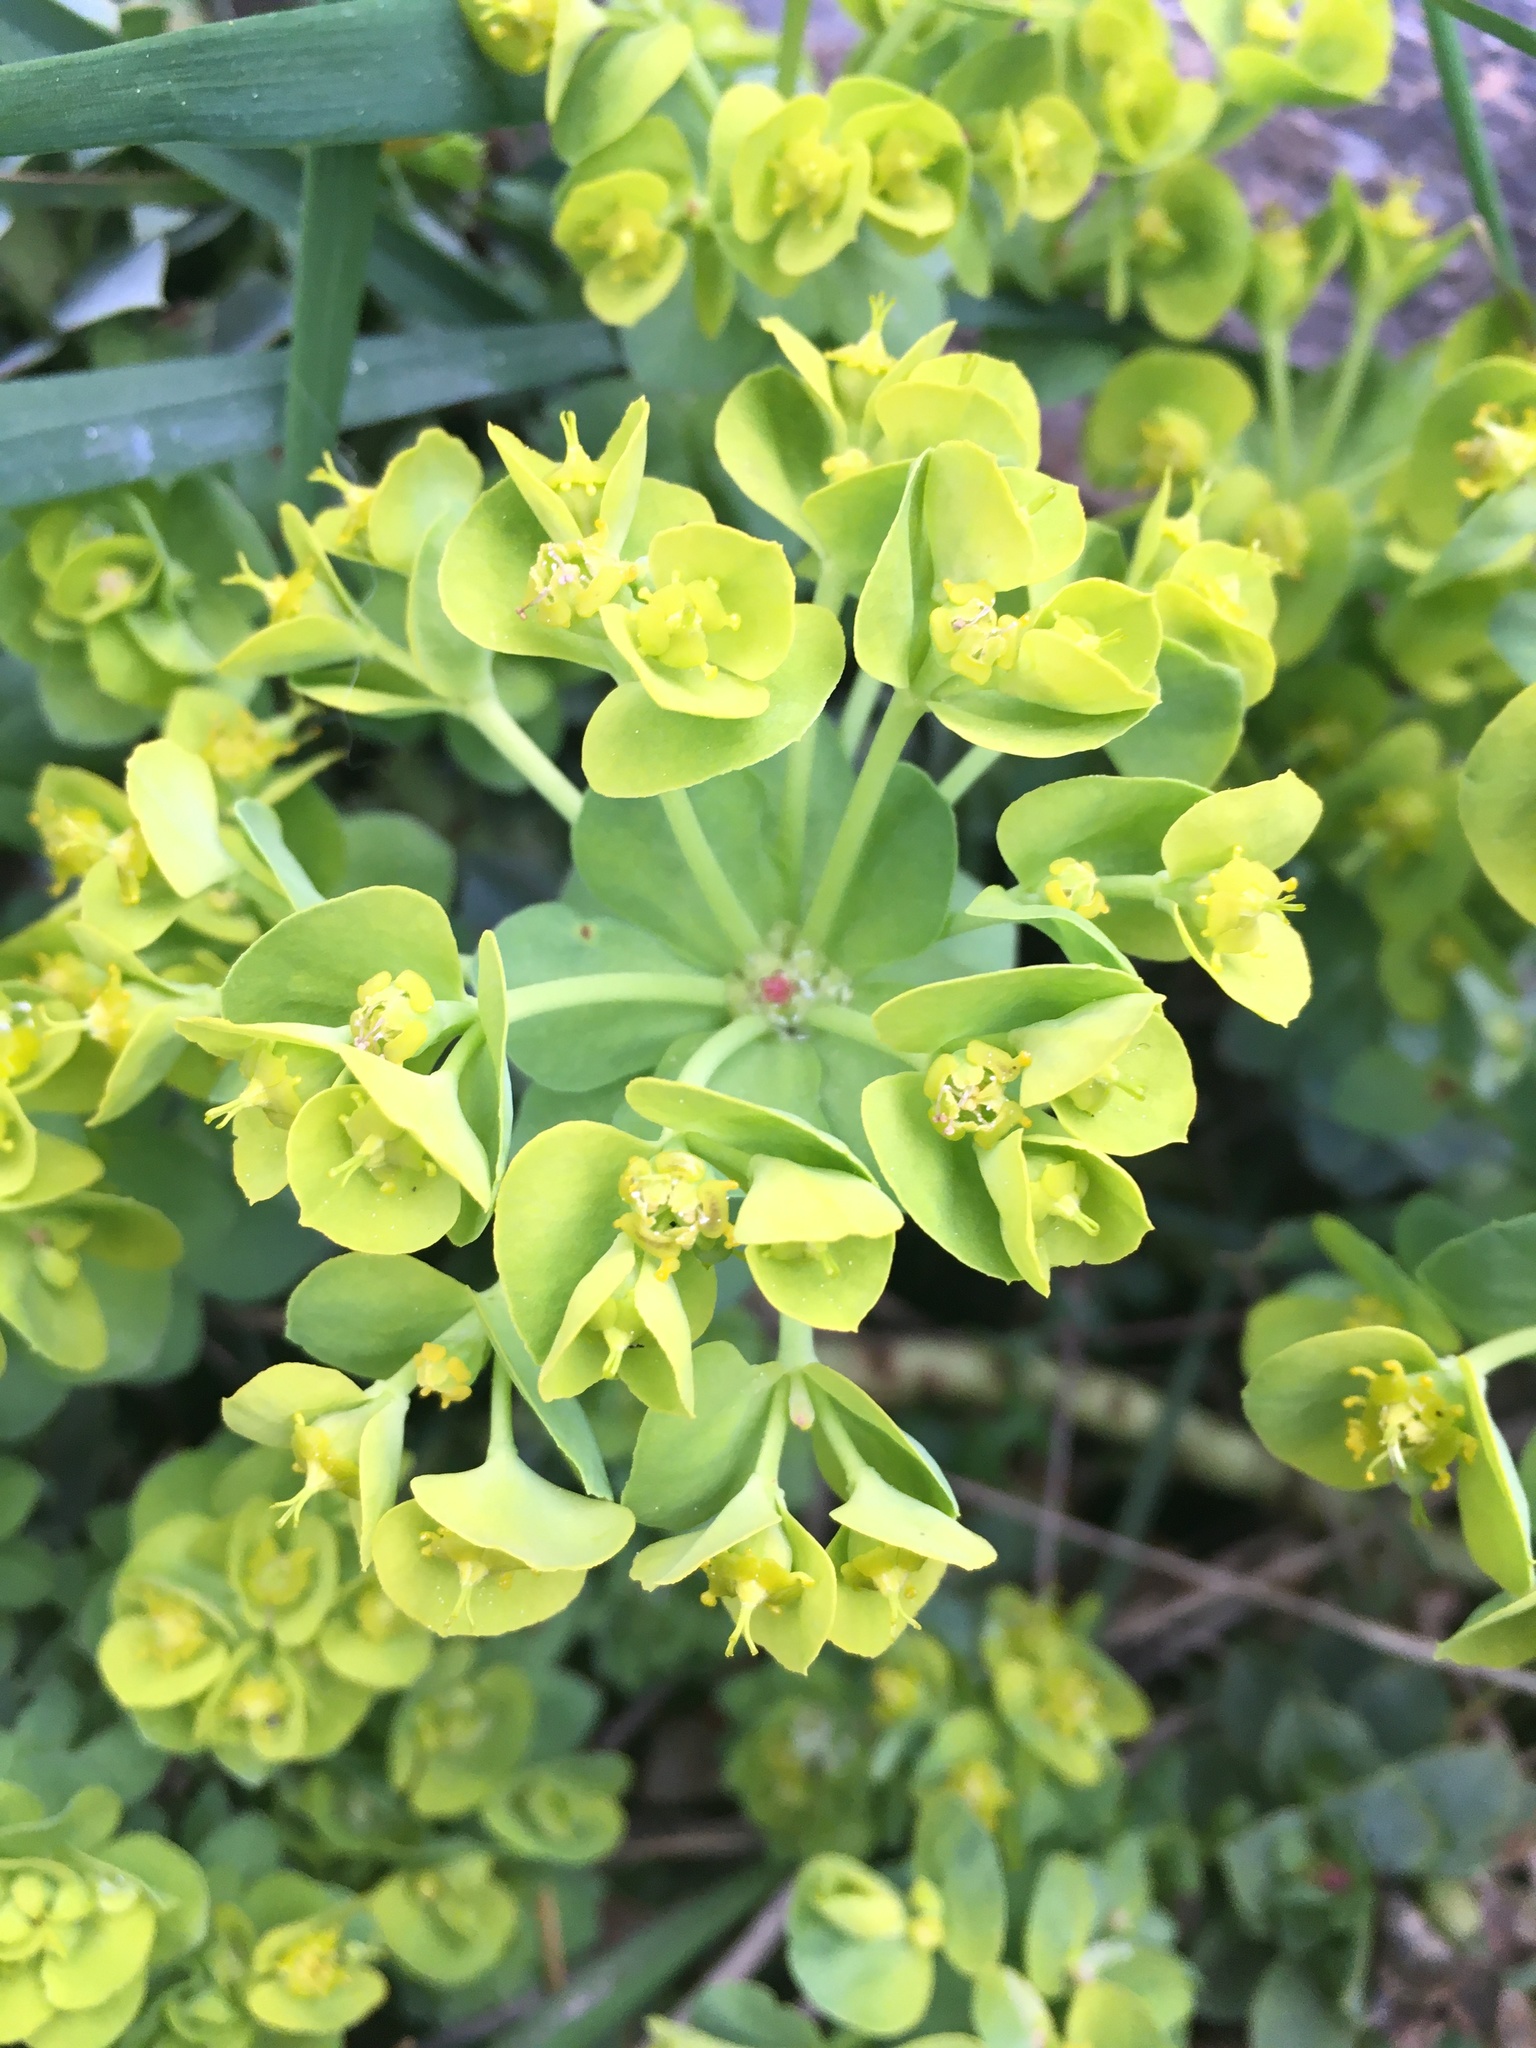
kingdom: Plantae
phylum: Tracheophyta
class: Magnoliopsida
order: Malpighiales
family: Euphorbiaceae
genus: Euphorbia
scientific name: Euphorbia myrsinites
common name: Myrtle spurge
